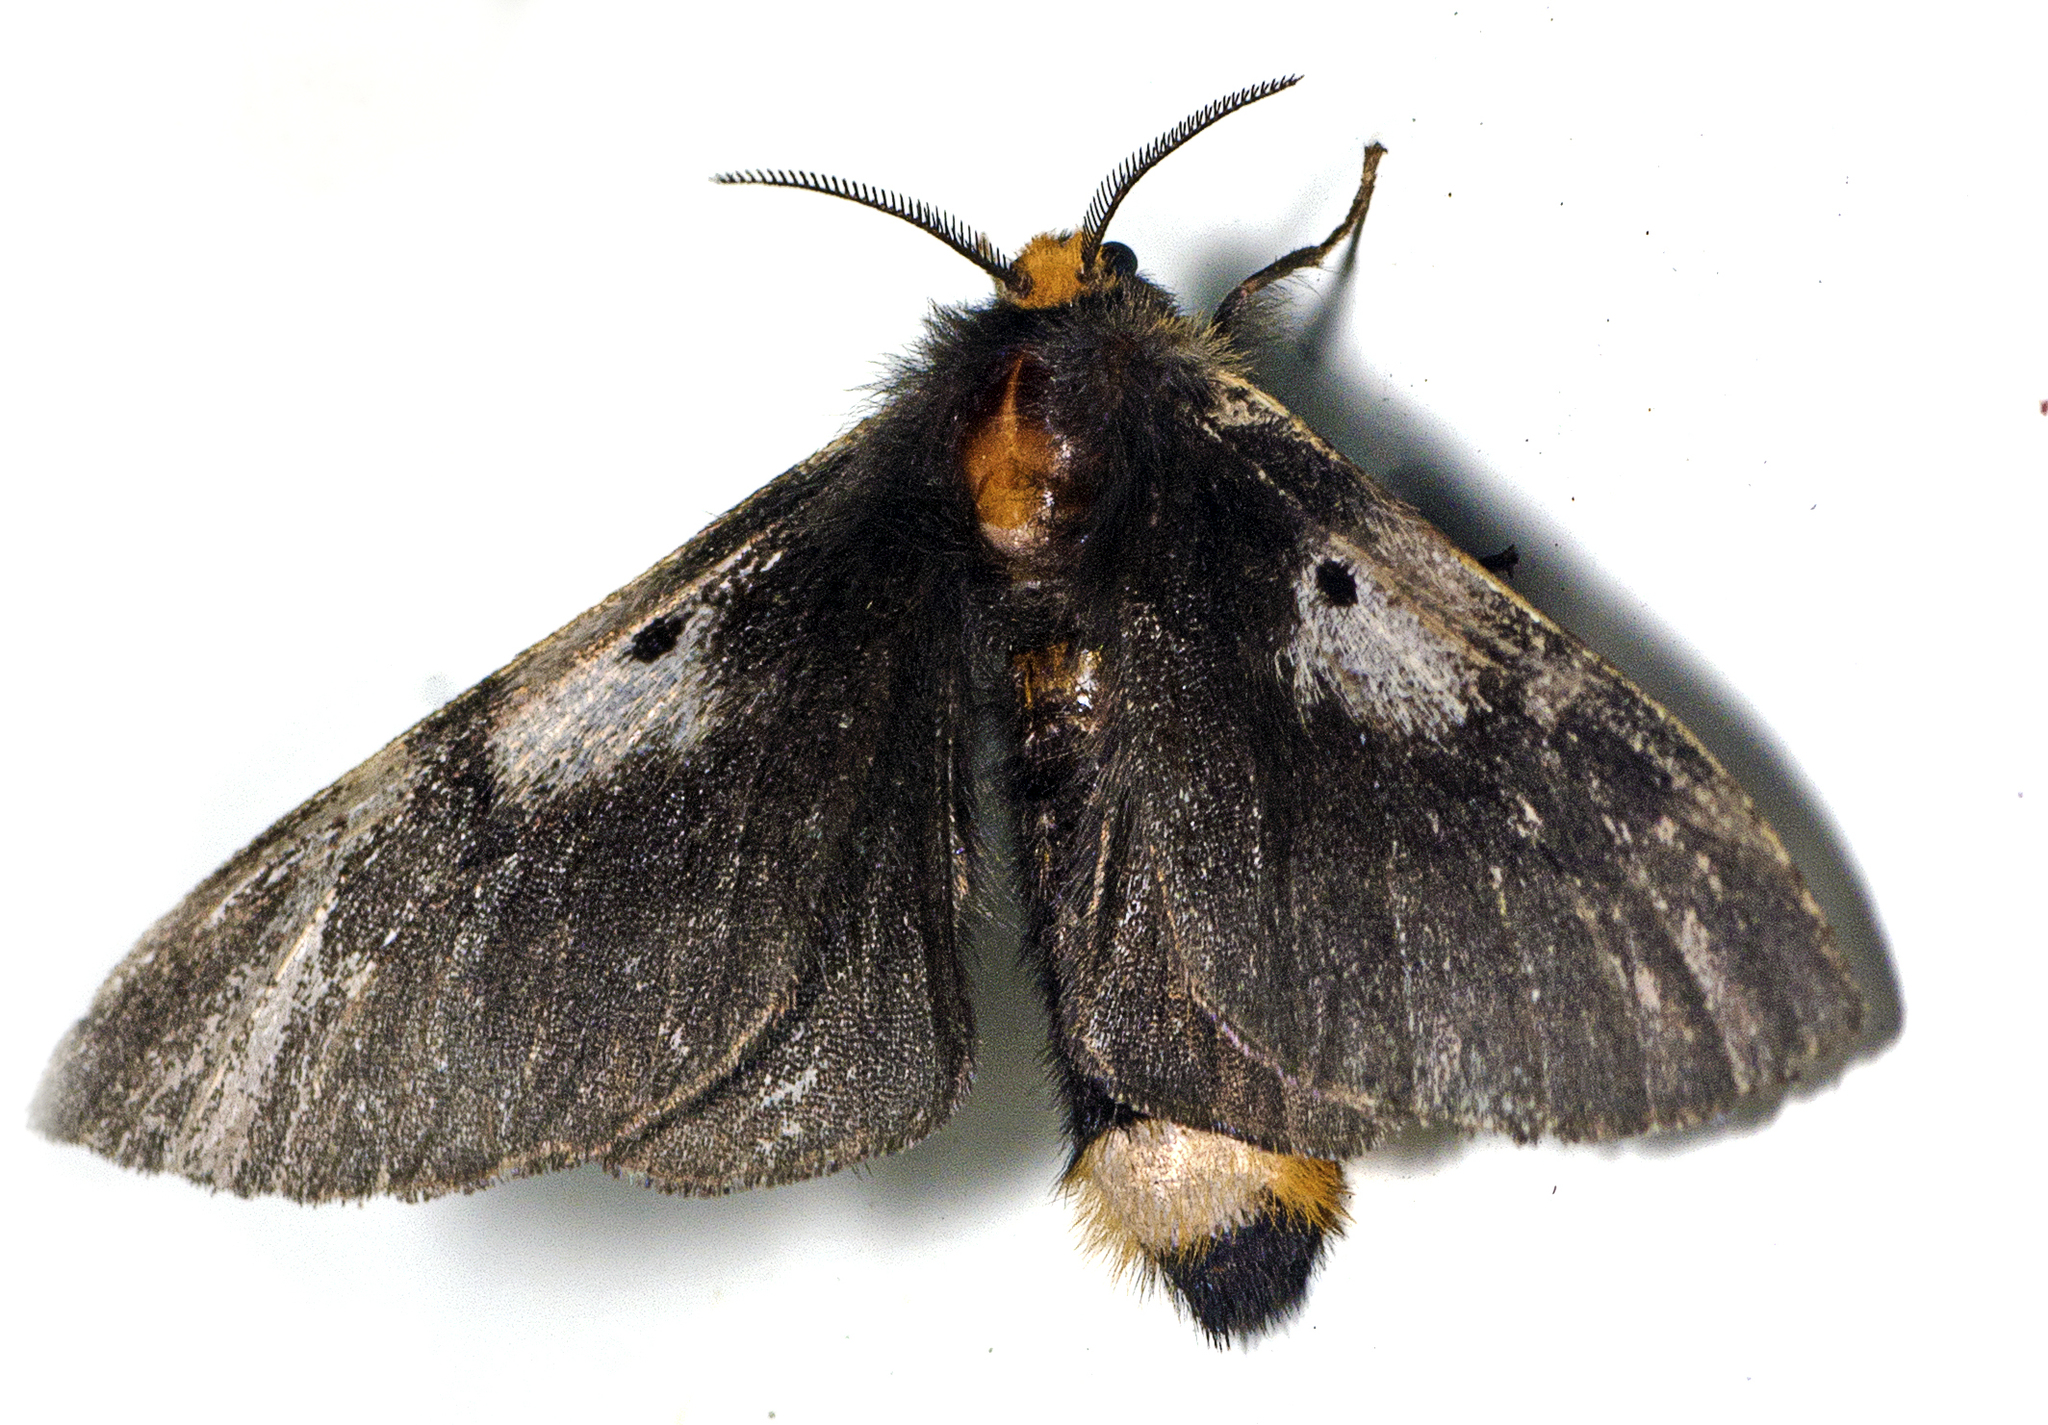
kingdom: Animalia
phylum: Arthropoda
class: Insecta
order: Lepidoptera
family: Anthelidae
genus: Nataxa
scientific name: Nataxa flavescens
